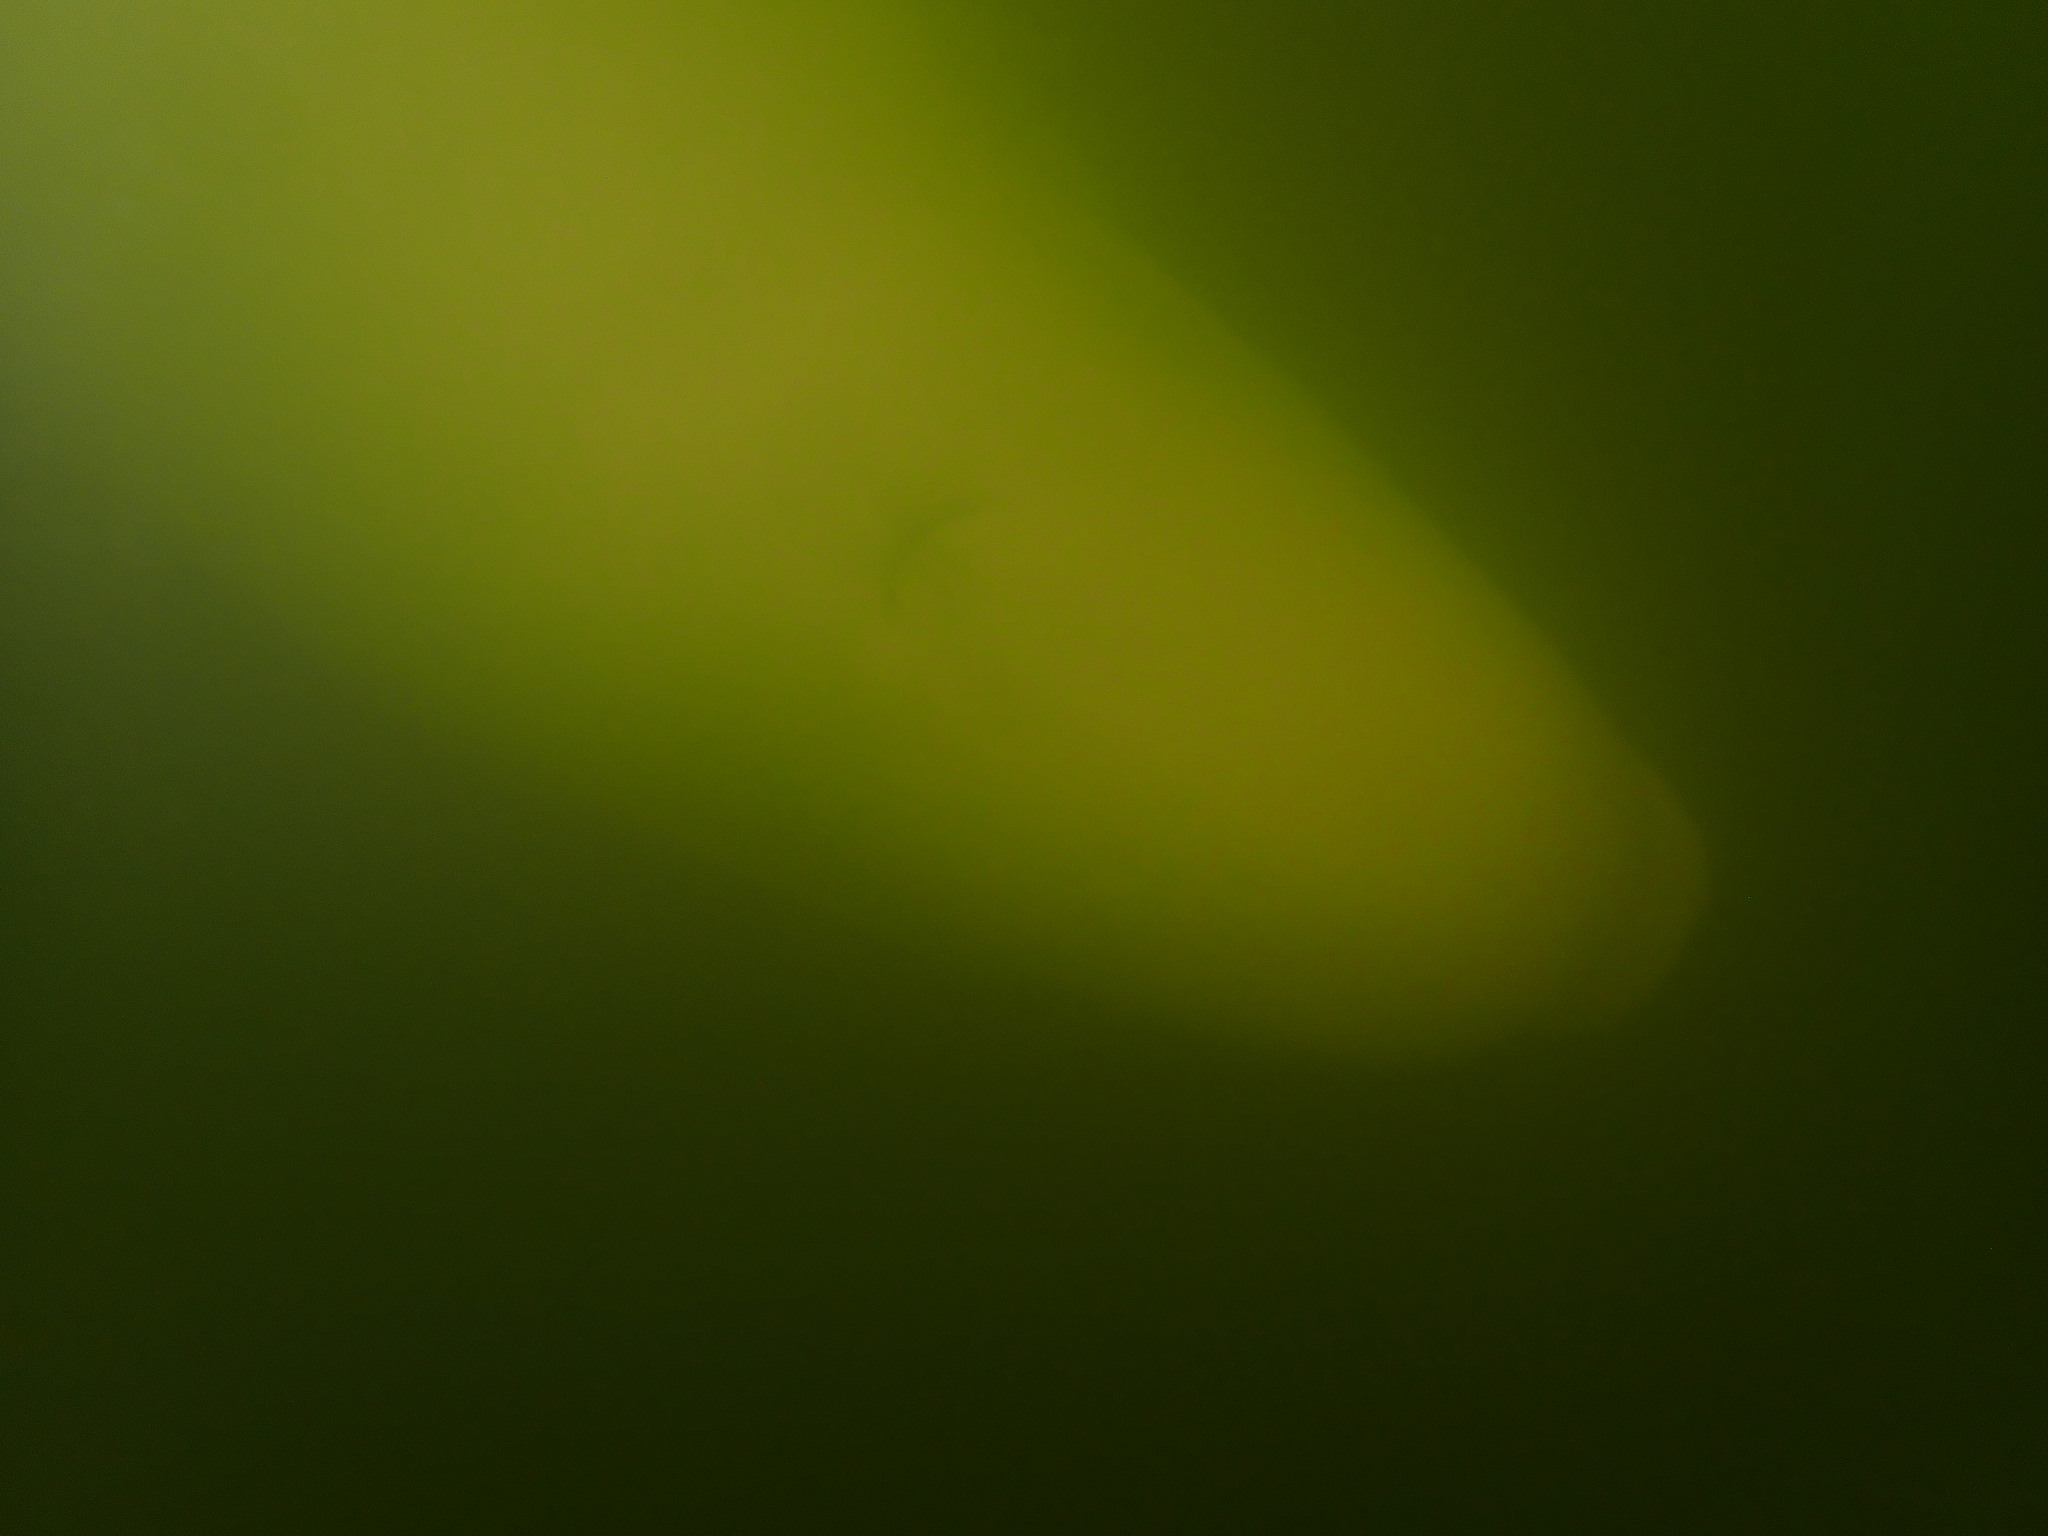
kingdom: Animalia
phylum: Chordata
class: Mammalia
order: Cetacea
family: Monodontidae
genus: Delphinapterus
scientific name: Delphinapterus leucas
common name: Beluga
